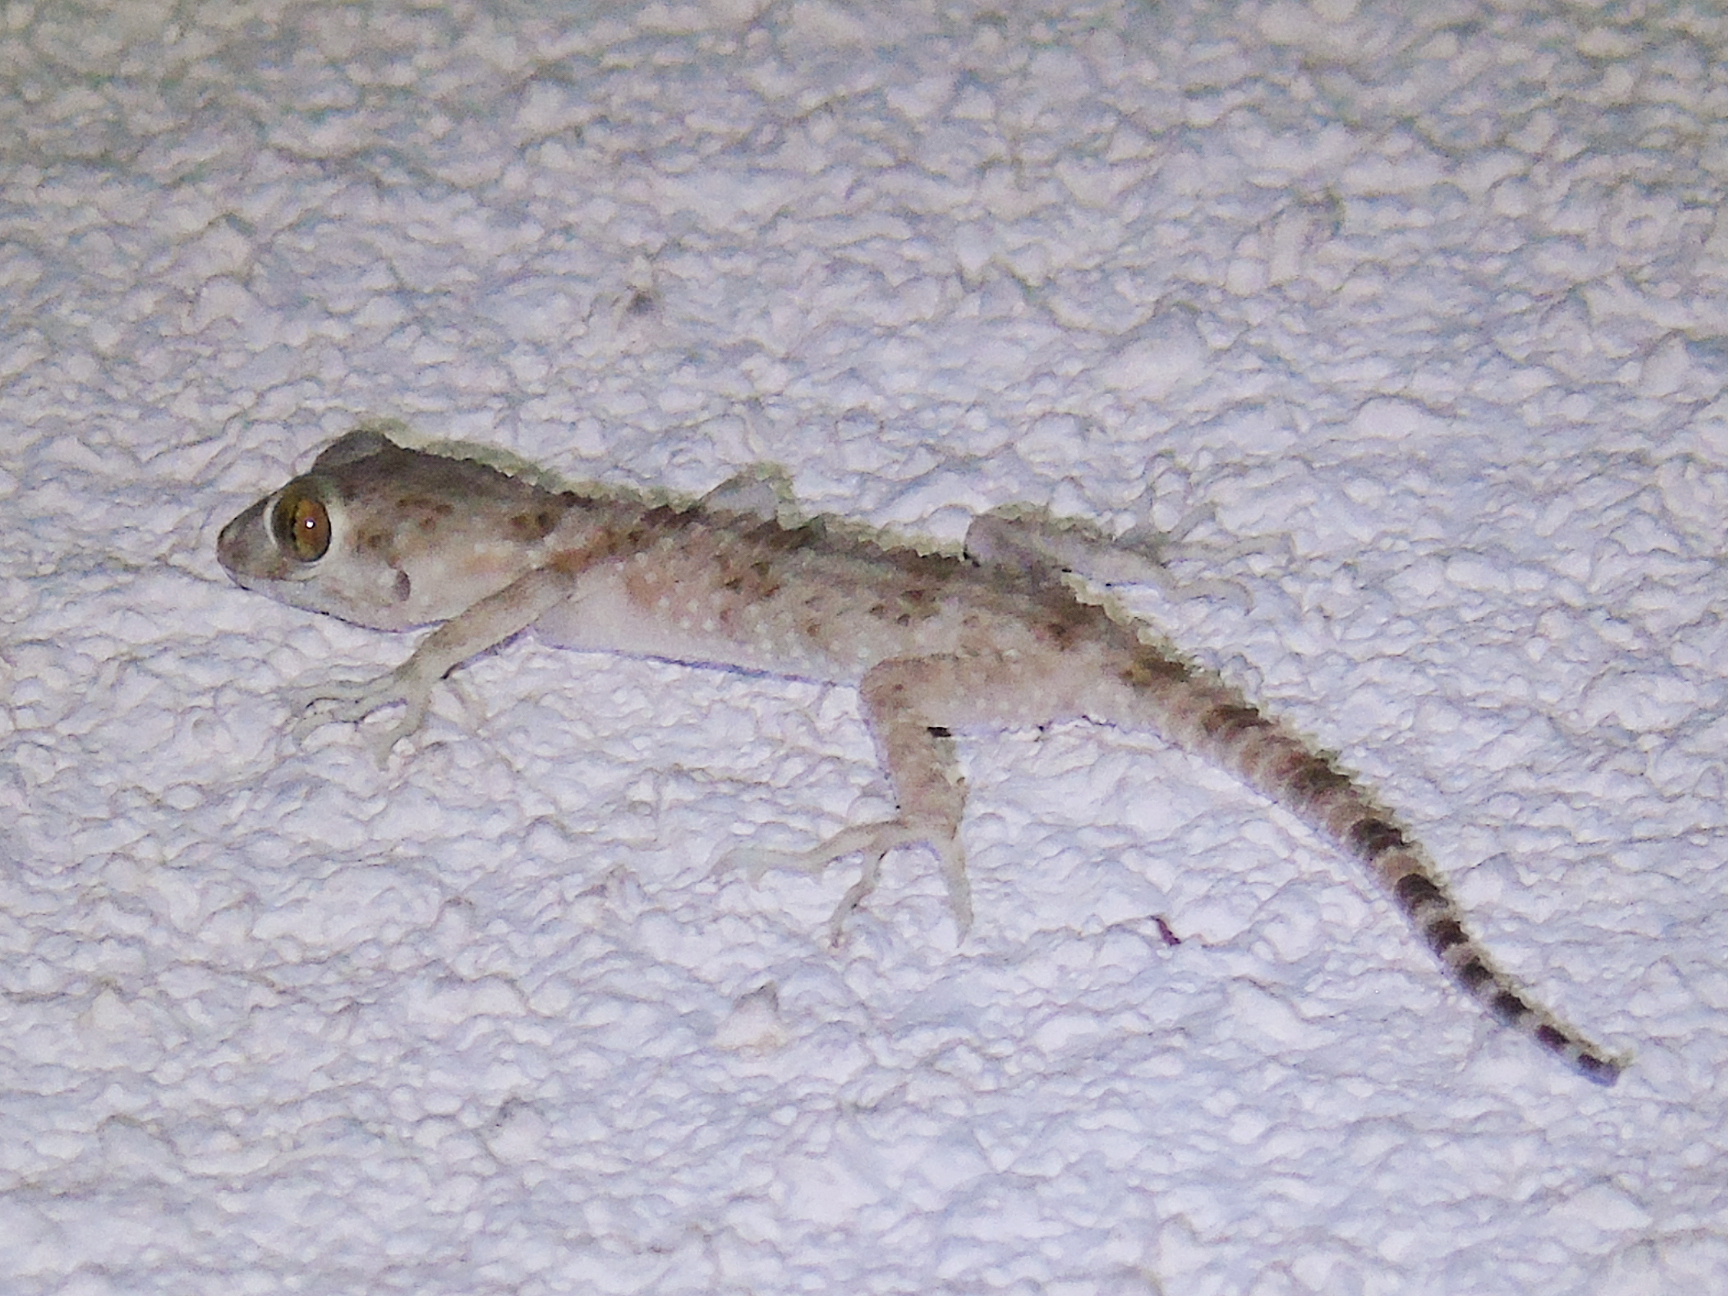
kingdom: Animalia
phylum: Chordata
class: Squamata
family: Gekkonidae
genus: Tenuidactylus
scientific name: Tenuidactylus caspius
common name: Caspian bent-toed gecko
